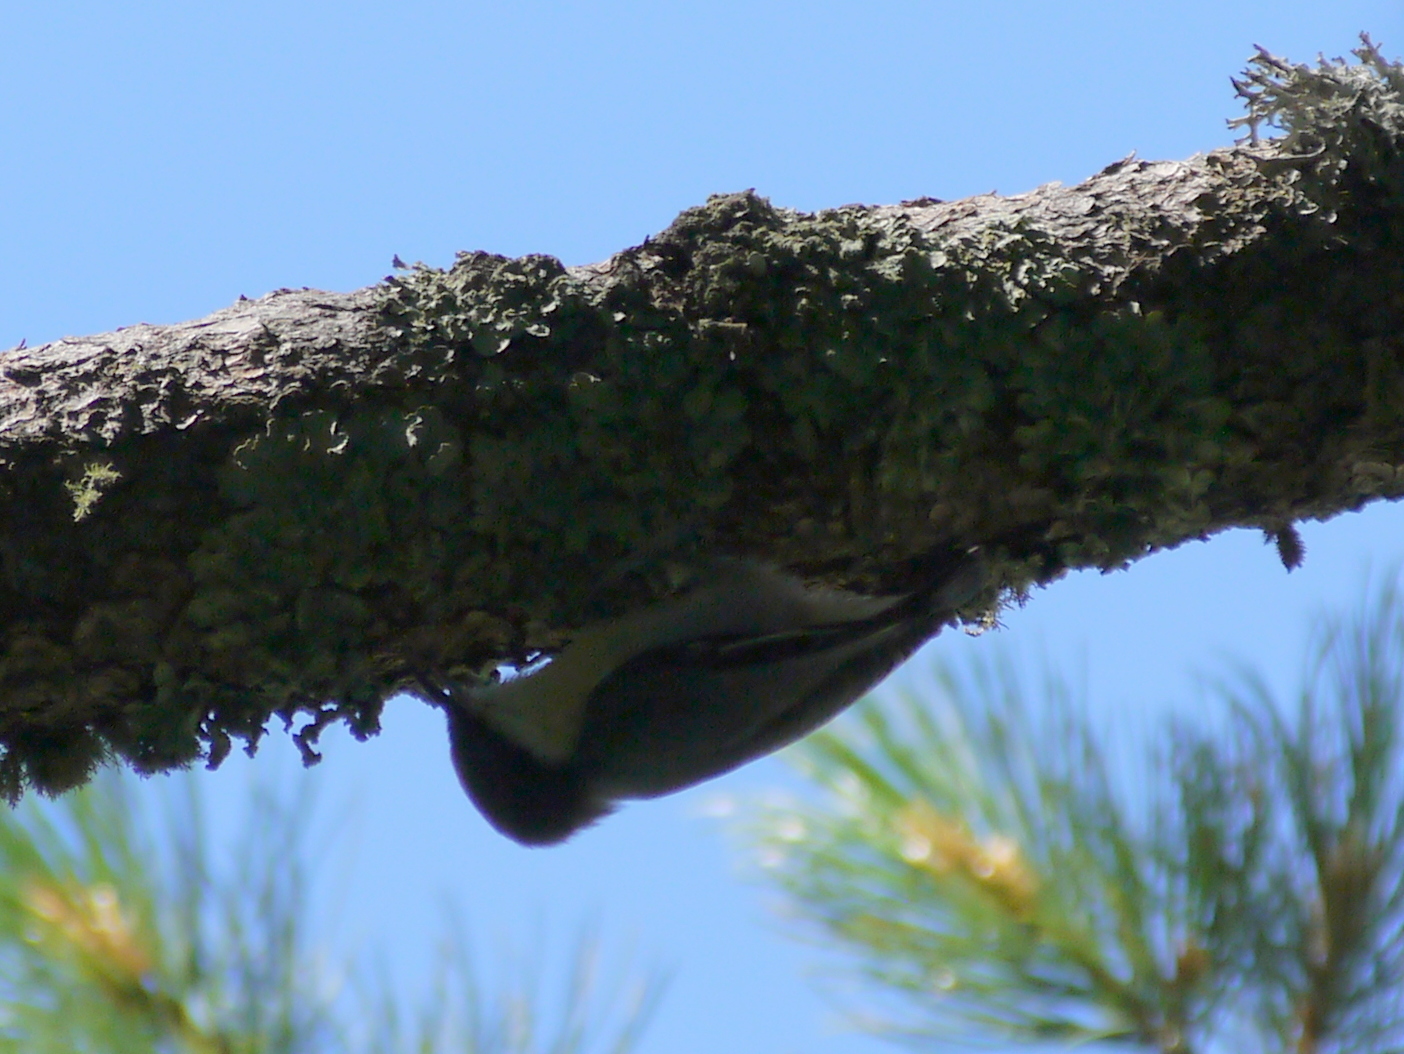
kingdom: Animalia
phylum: Chordata
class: Aves
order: Passeriformes
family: Sittidae
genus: Sitta
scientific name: Sitta pygmaea
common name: Pygmy nuthatch
